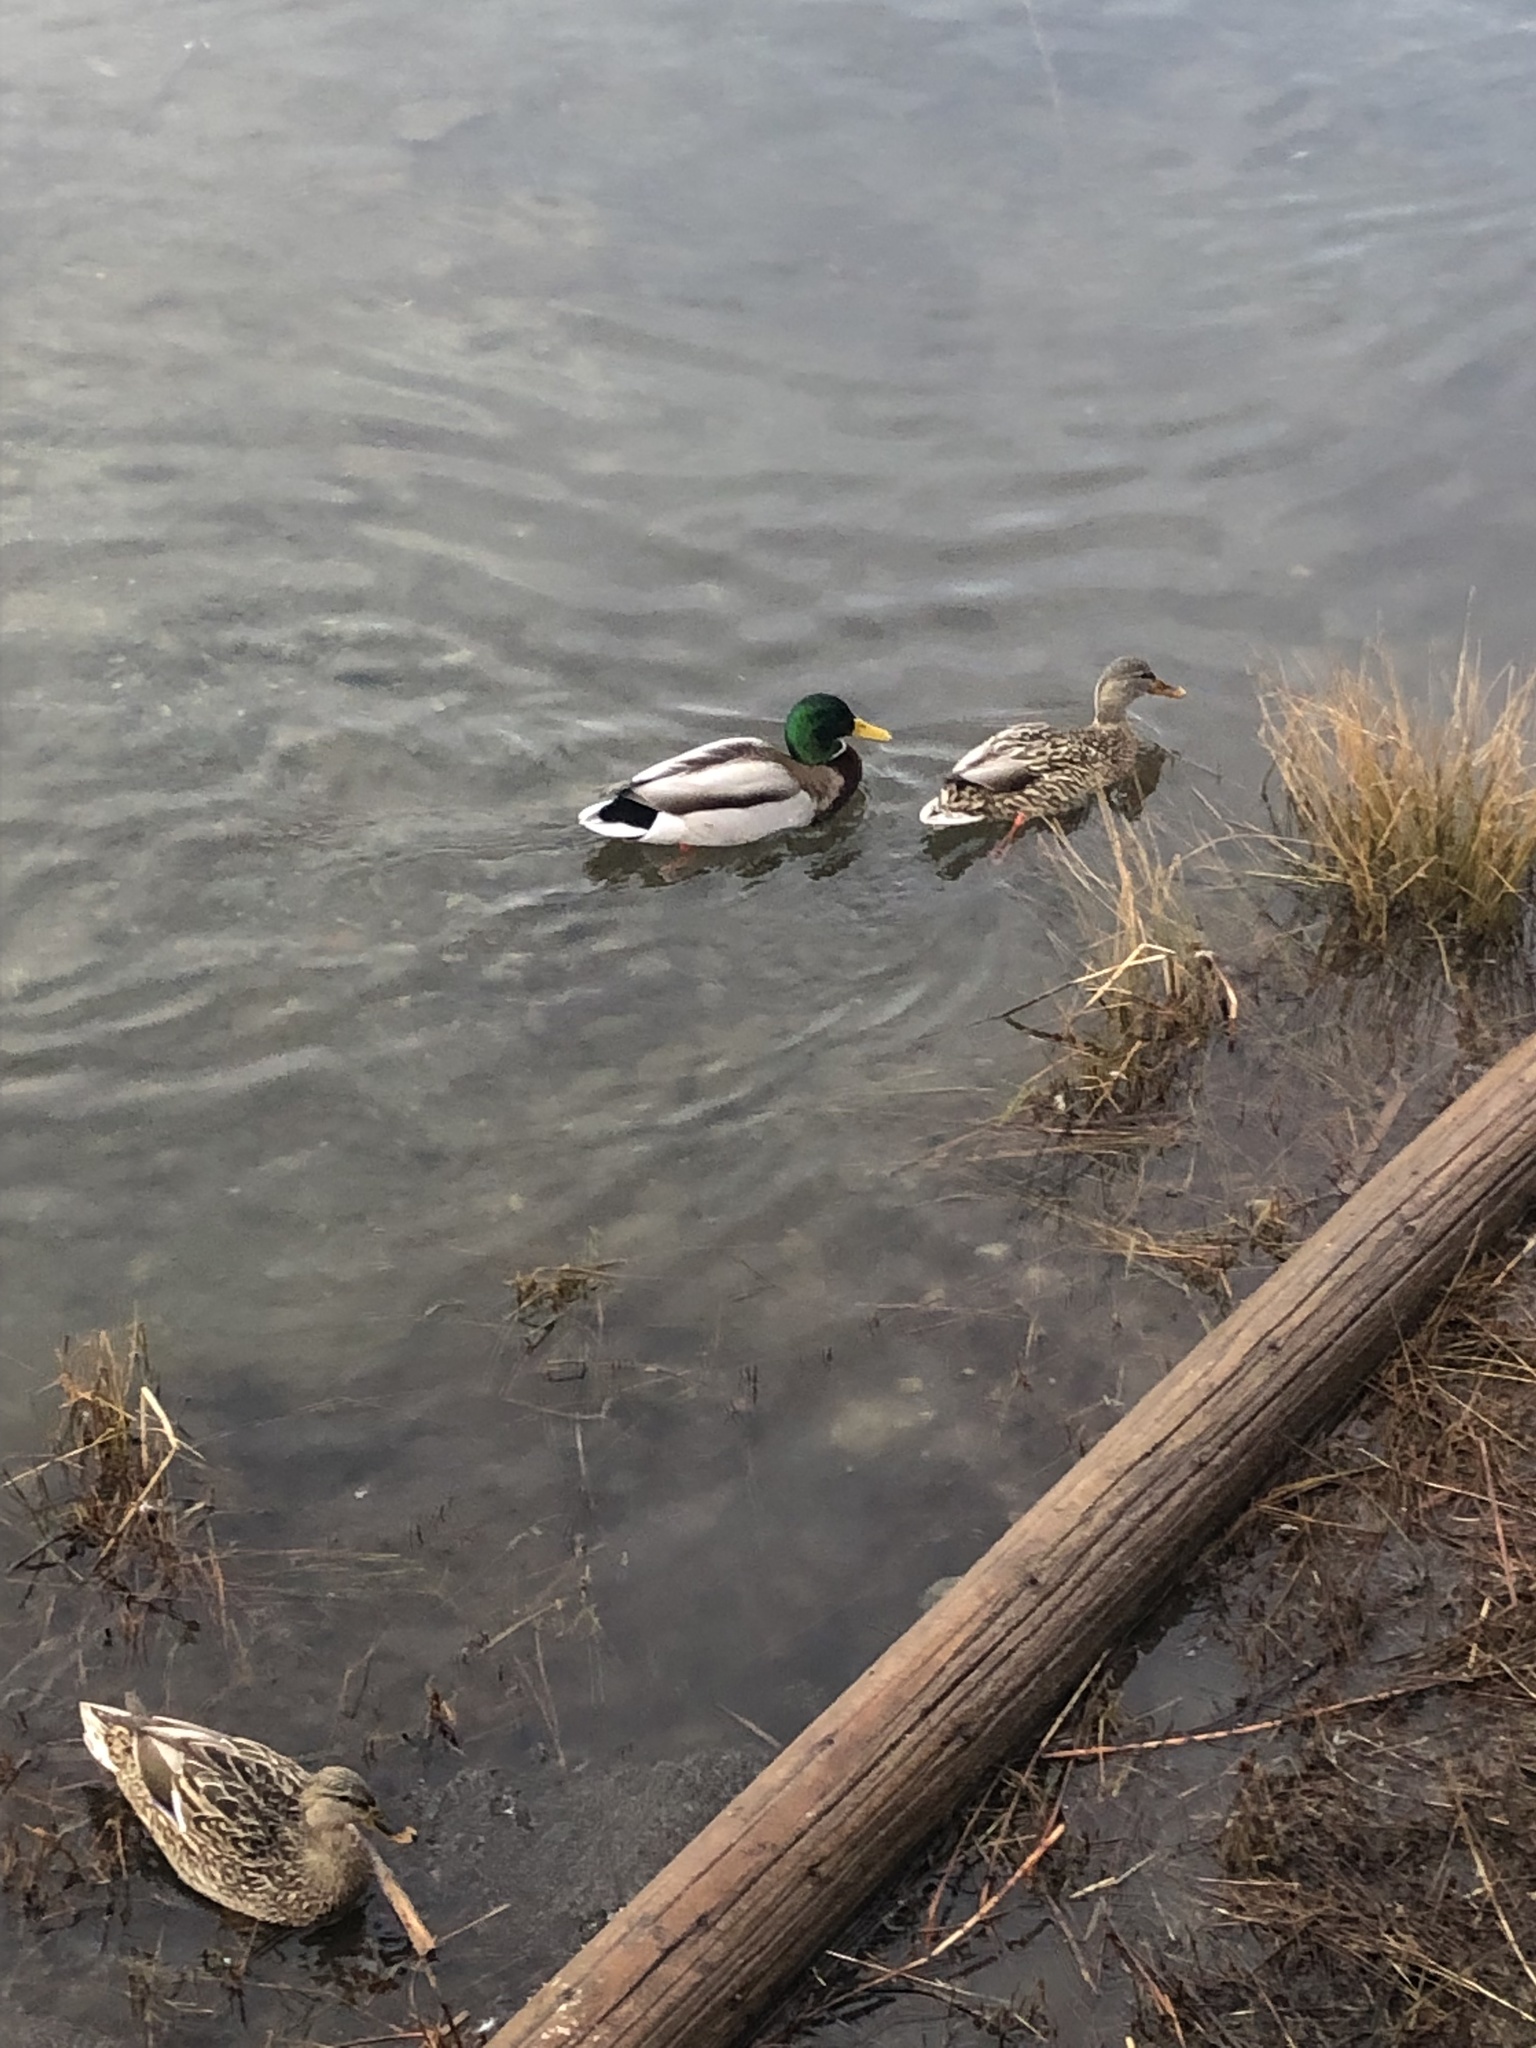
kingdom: Animalia
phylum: Chordata
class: Aves
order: Anseriformes
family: Anatidae
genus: Anas
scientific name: Anas platyrhynchos
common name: Mallard
